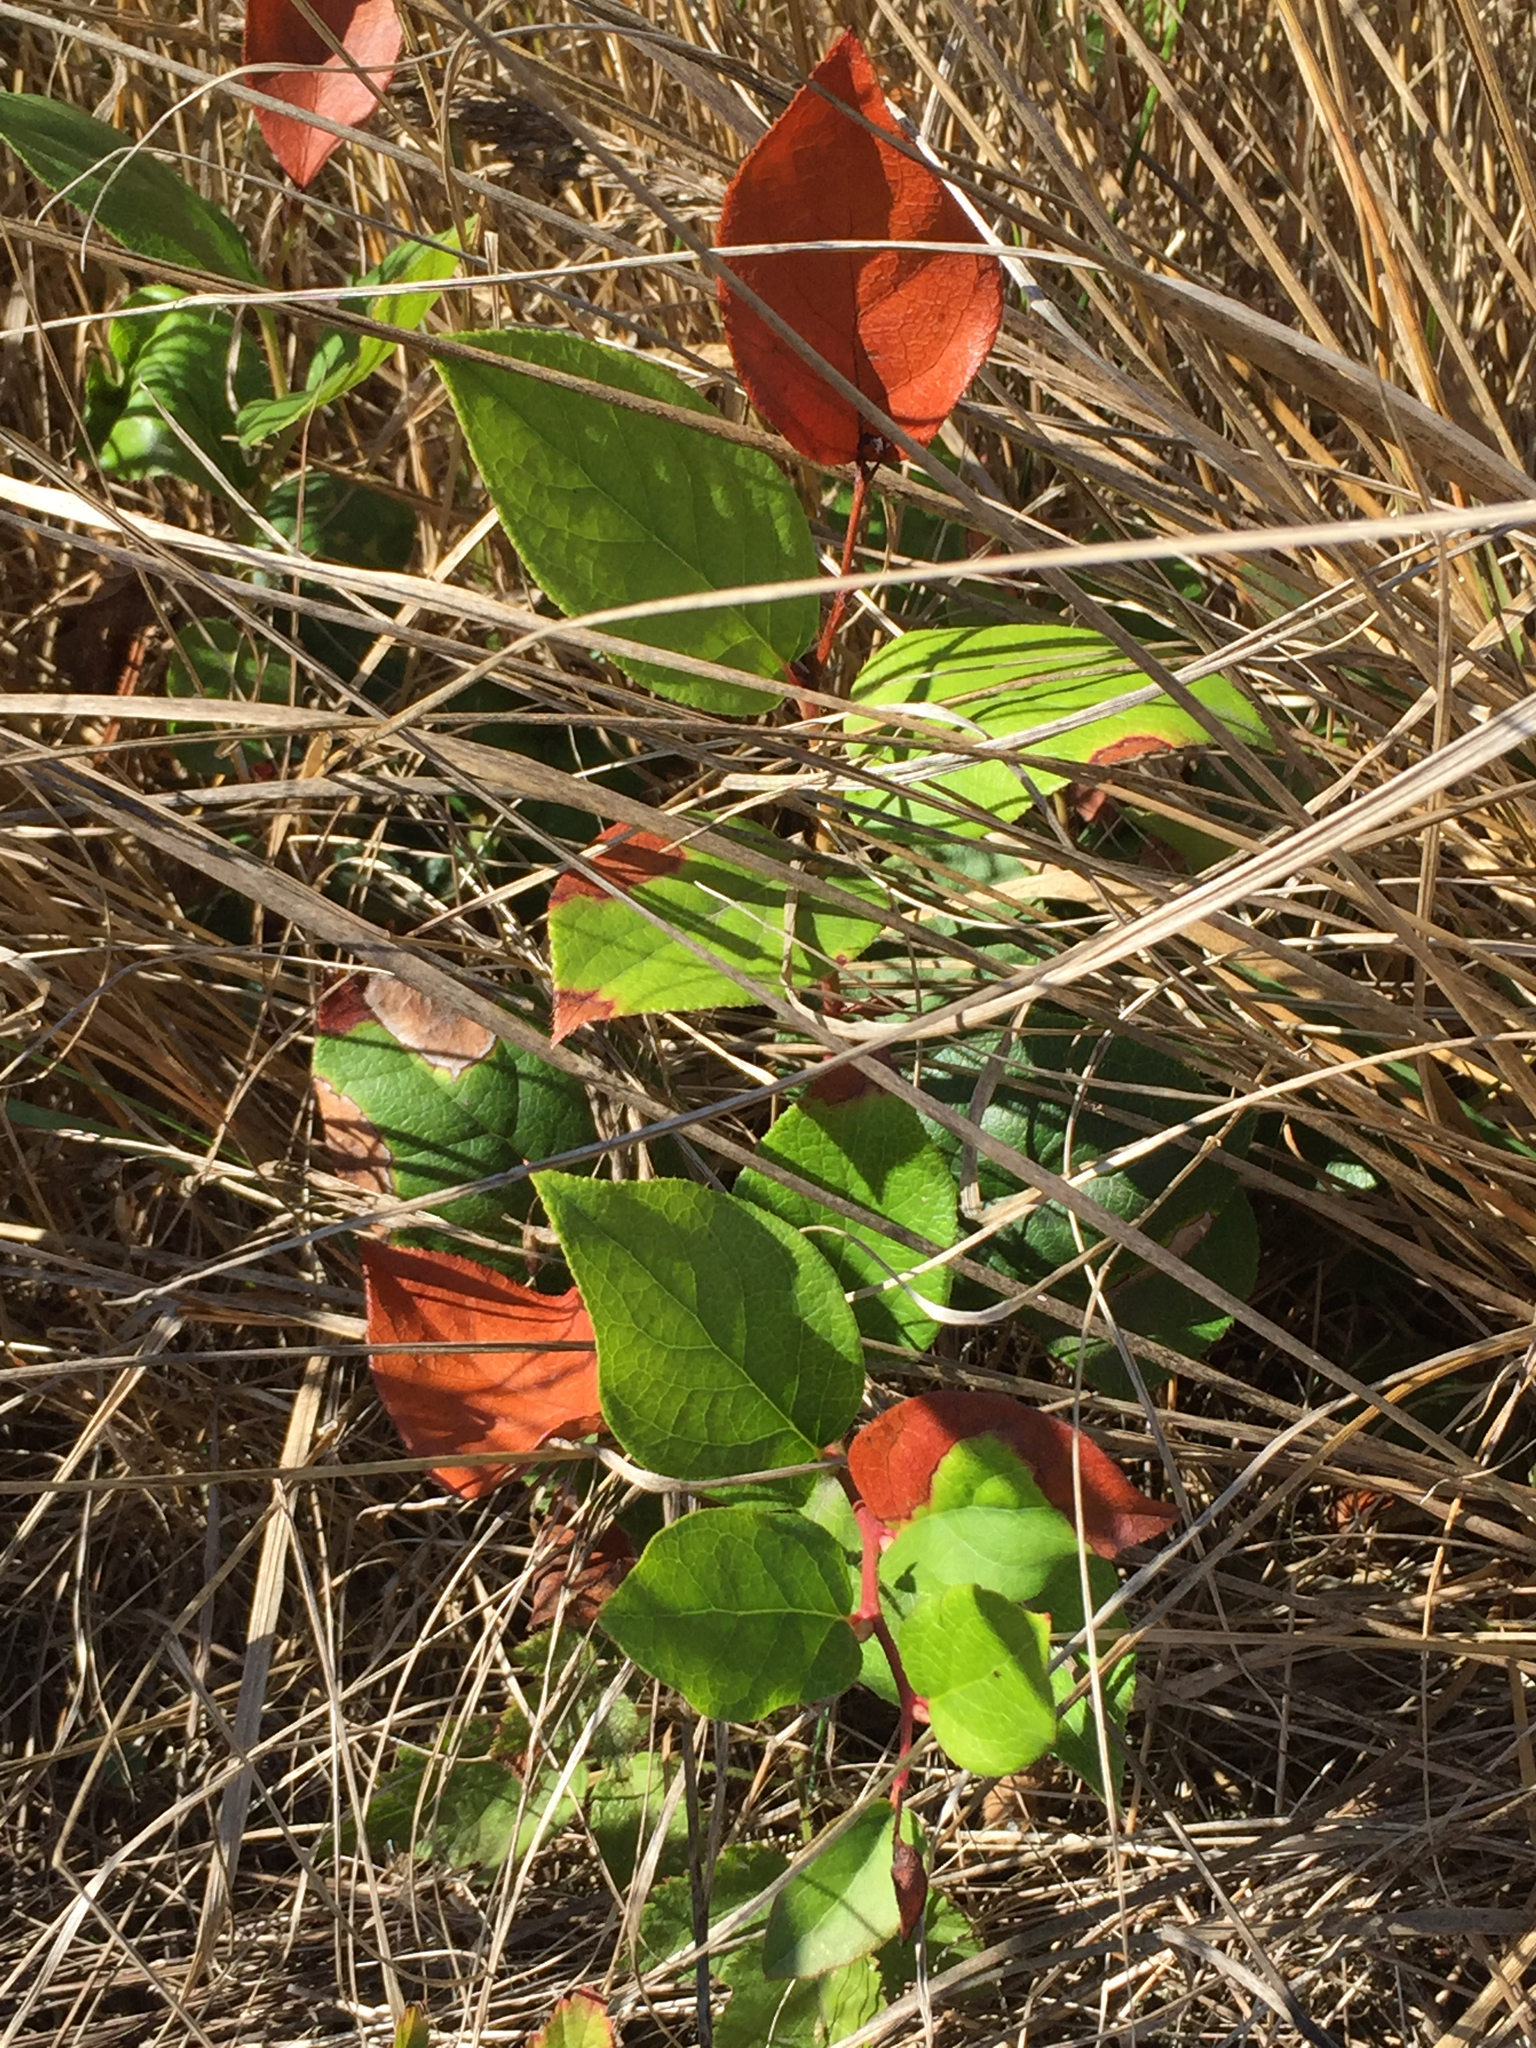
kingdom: Plantae
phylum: Tracheophyta
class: Magnoliopsida
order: Ericales
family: Ericaceae
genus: Gaultheria
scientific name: Gaultheria shallon
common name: Shallon
